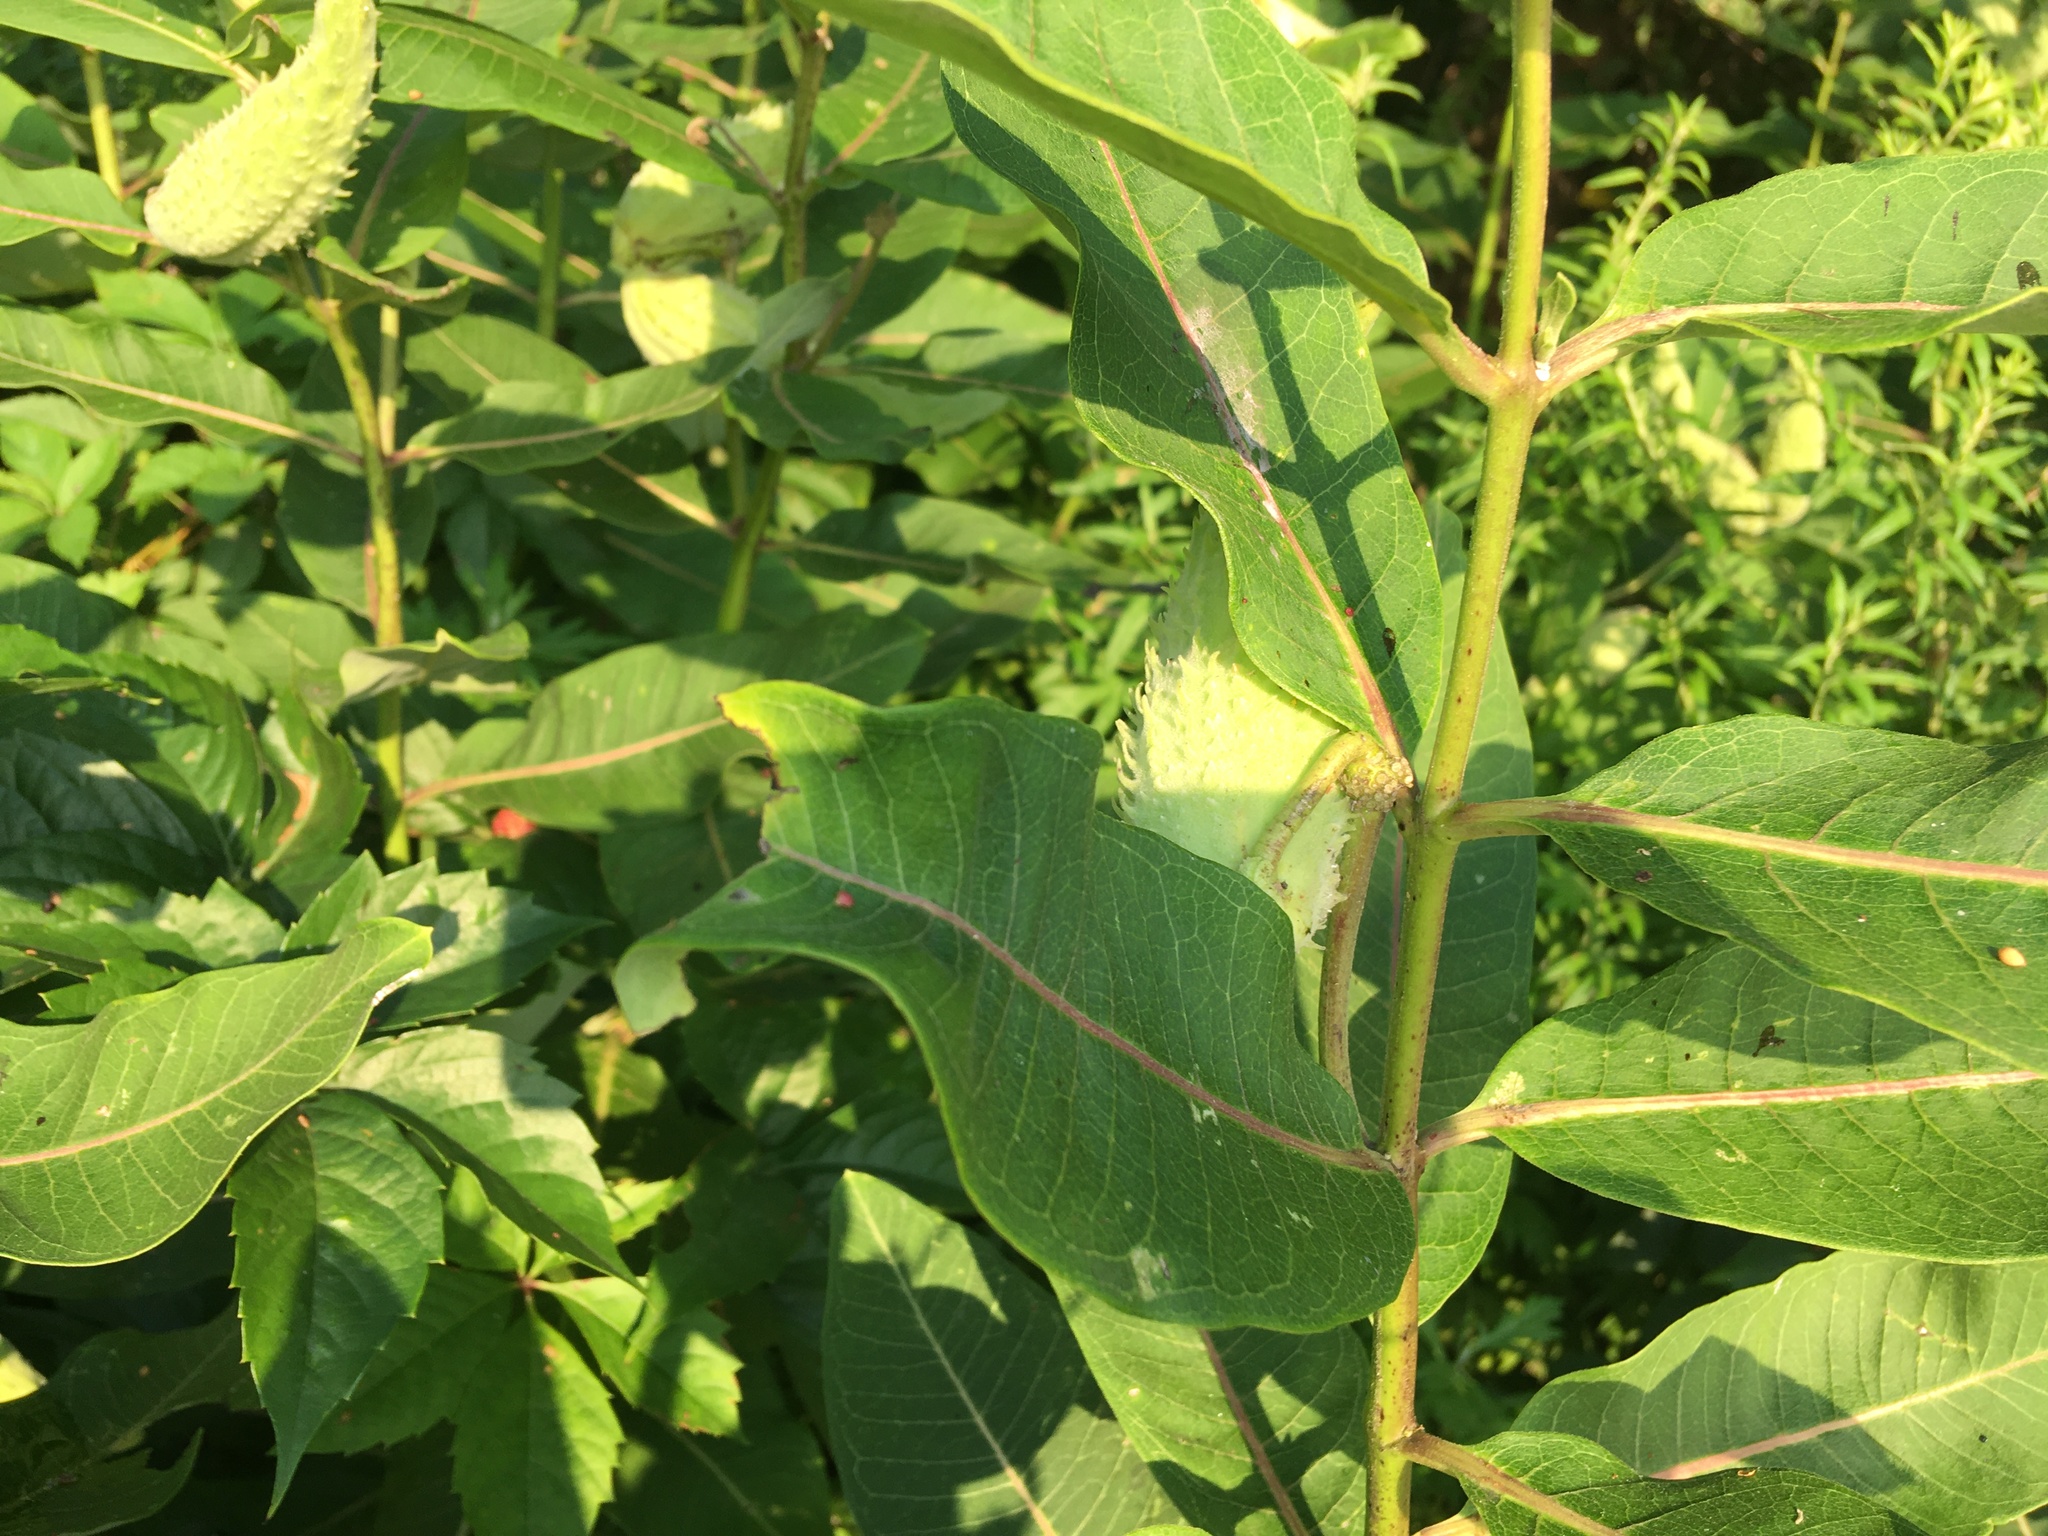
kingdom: Plantae
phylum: Tracheophyta
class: Magnoliopsida
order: Gentianales
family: Apocynaceae
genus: Asclepias
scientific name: Asclepias syriaca
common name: Common milkweed
